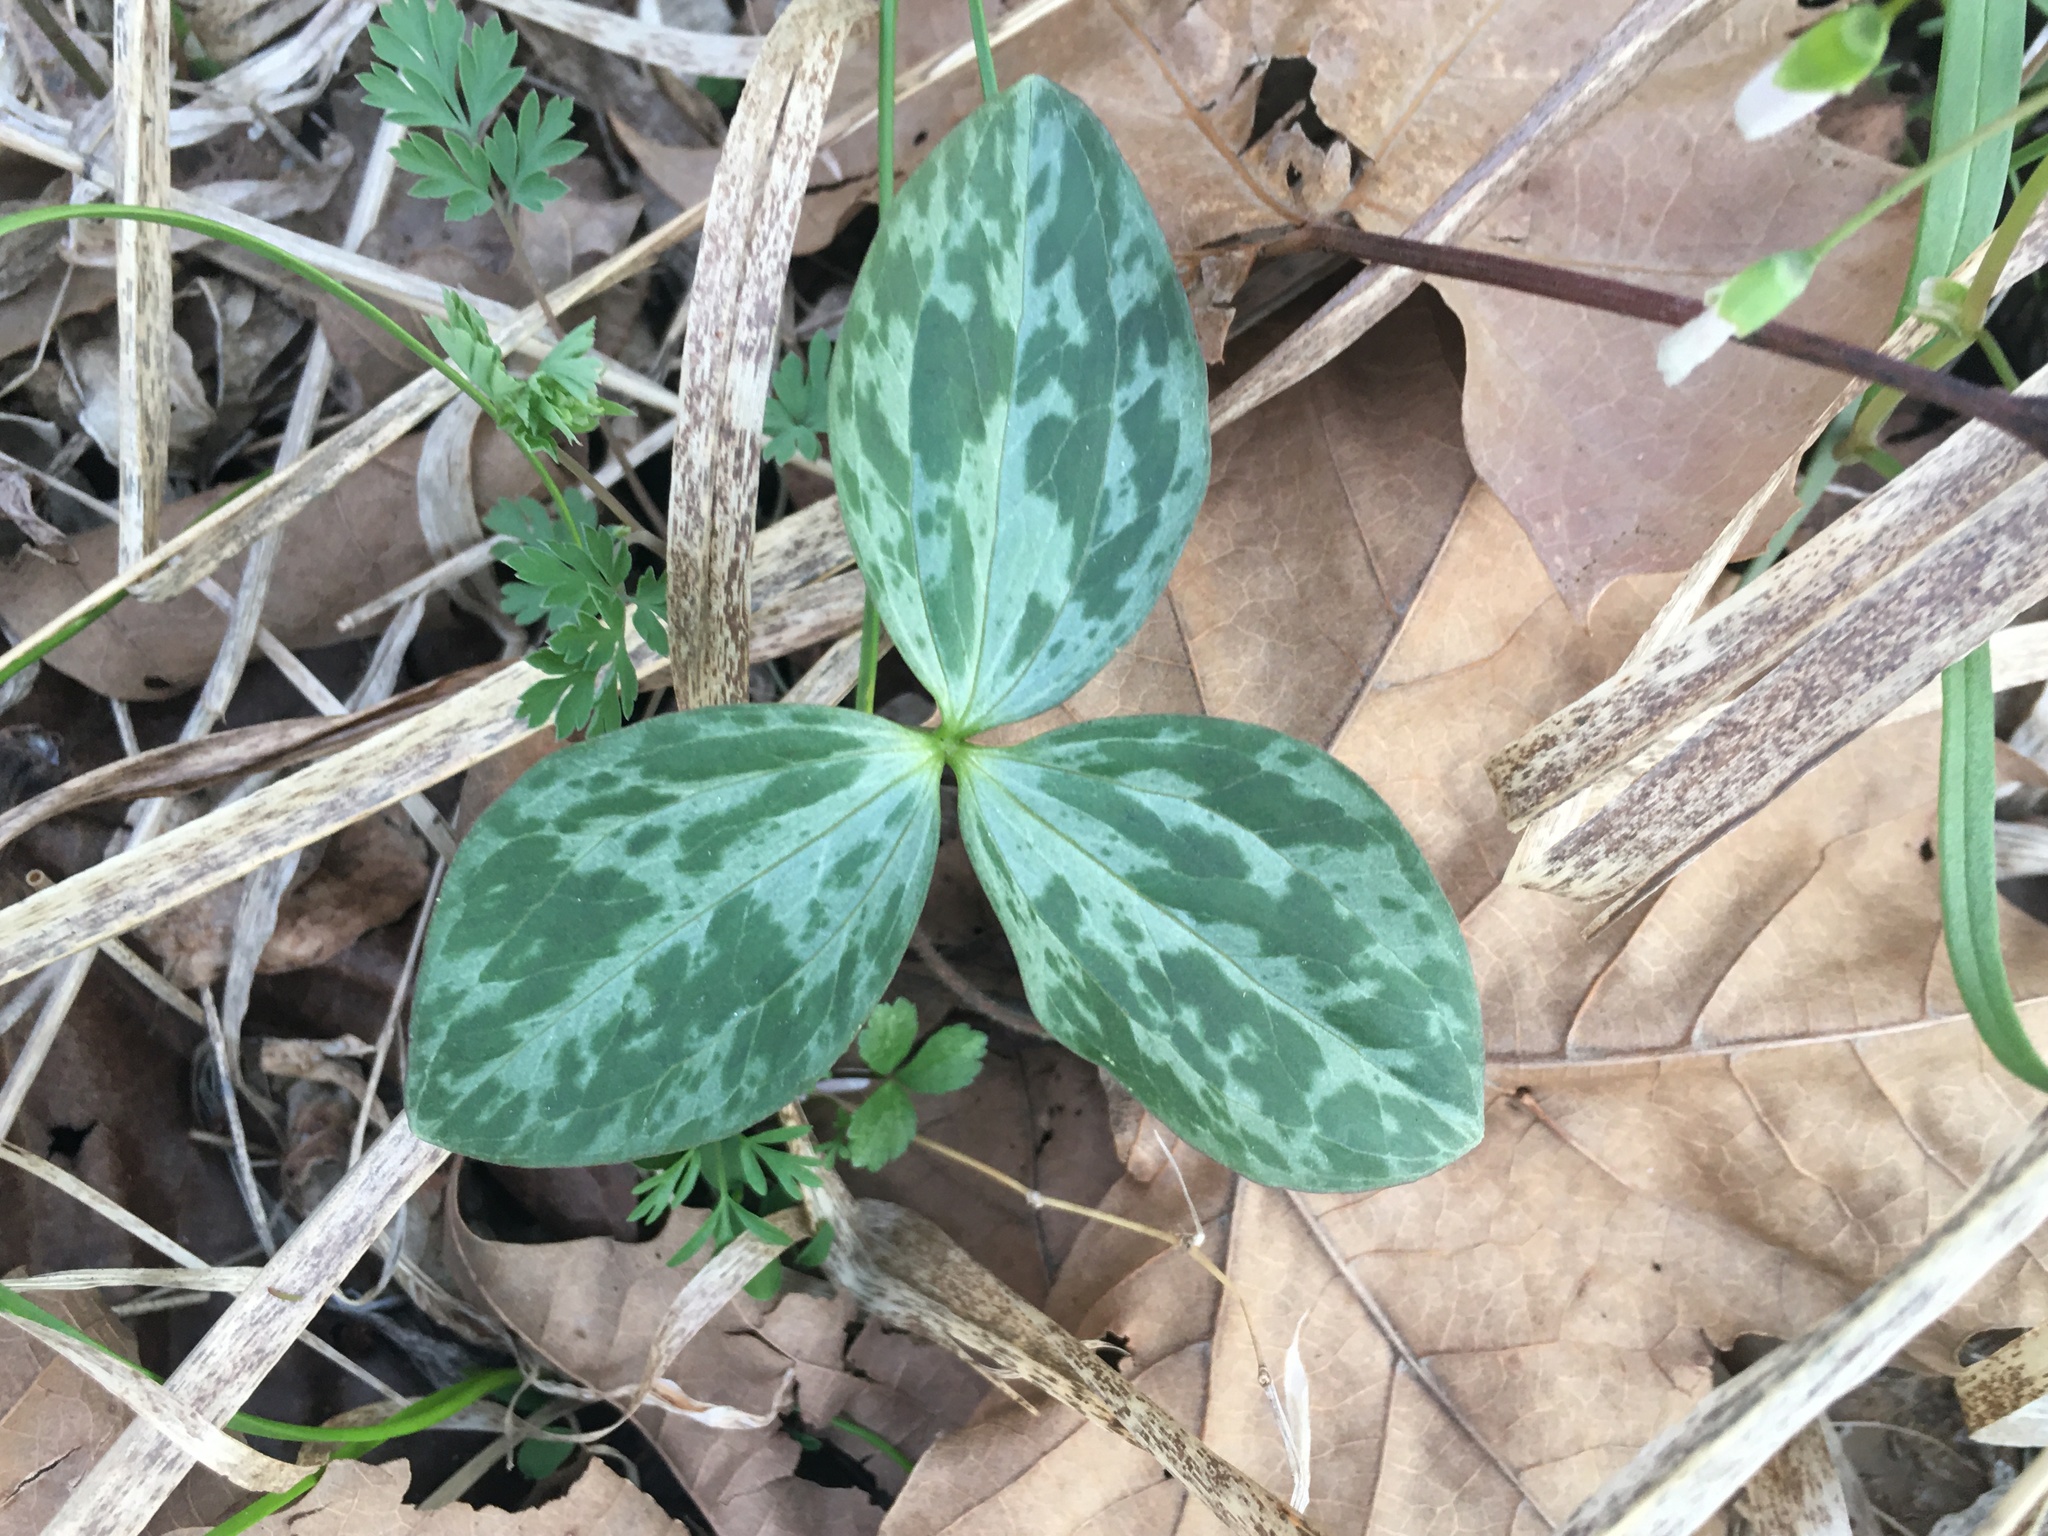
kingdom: Plantae
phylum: Tracheophyta
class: Liliopsida
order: Liliales
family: Melanthiaceae
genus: Trillium
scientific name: Trillium recurvatum
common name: Bloody butcher
